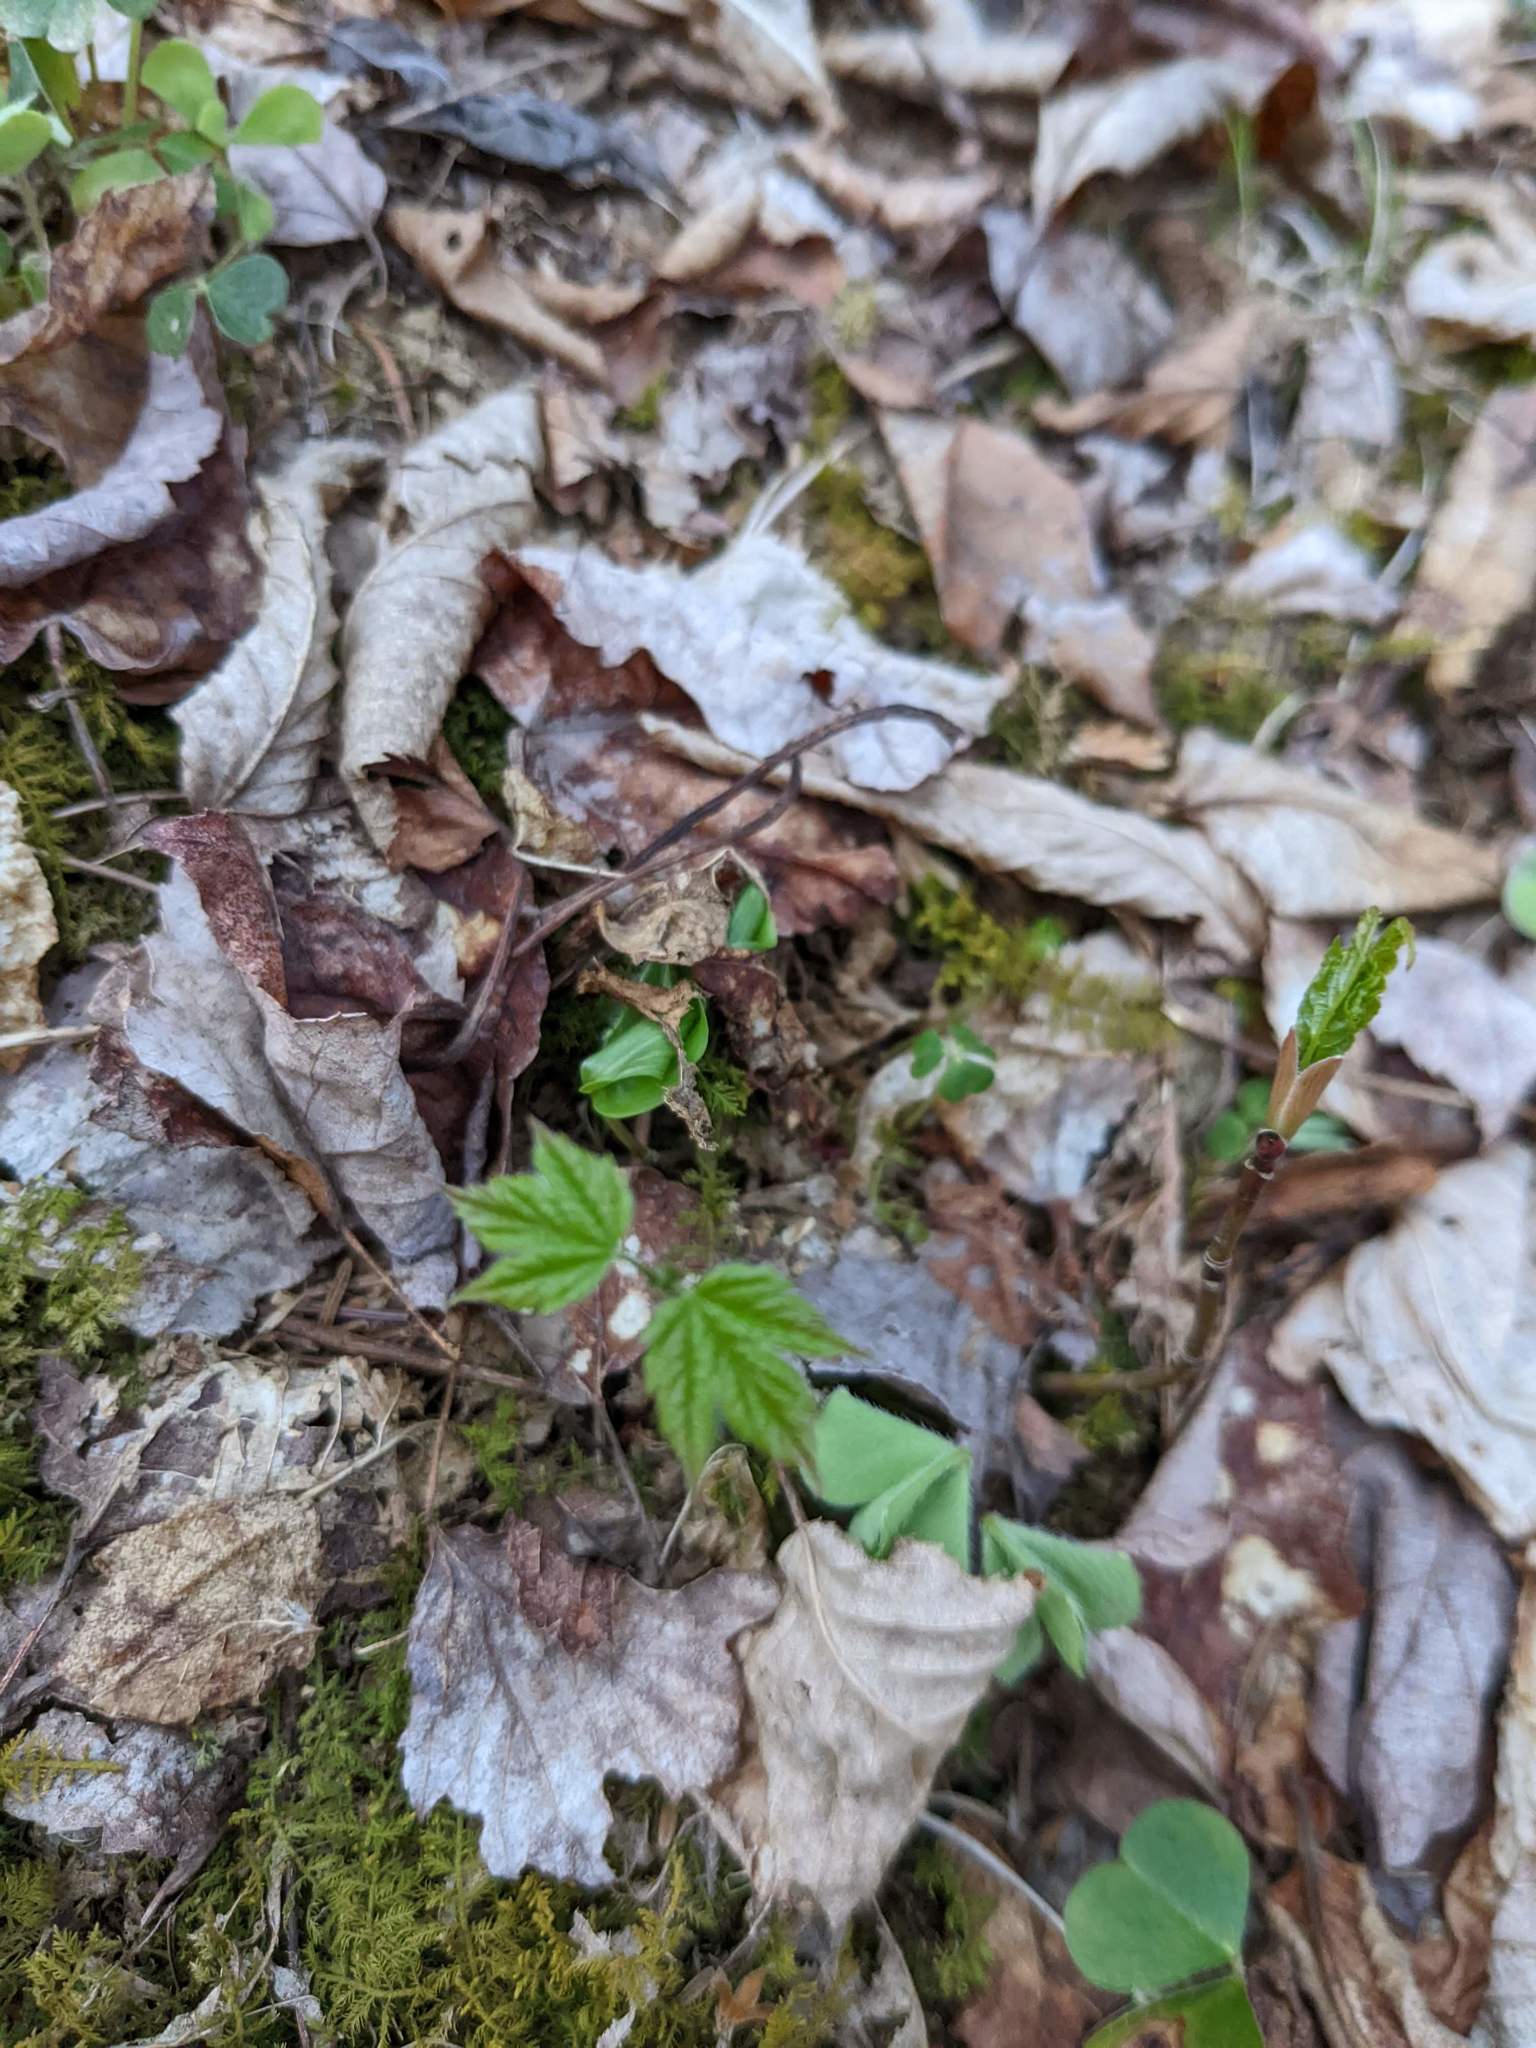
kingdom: Plantae
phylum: Tracheophyta
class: Magnoliopsida
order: Sapindales
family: Sapindaceae
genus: Acer
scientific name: Acer rubrum
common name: Red maple
